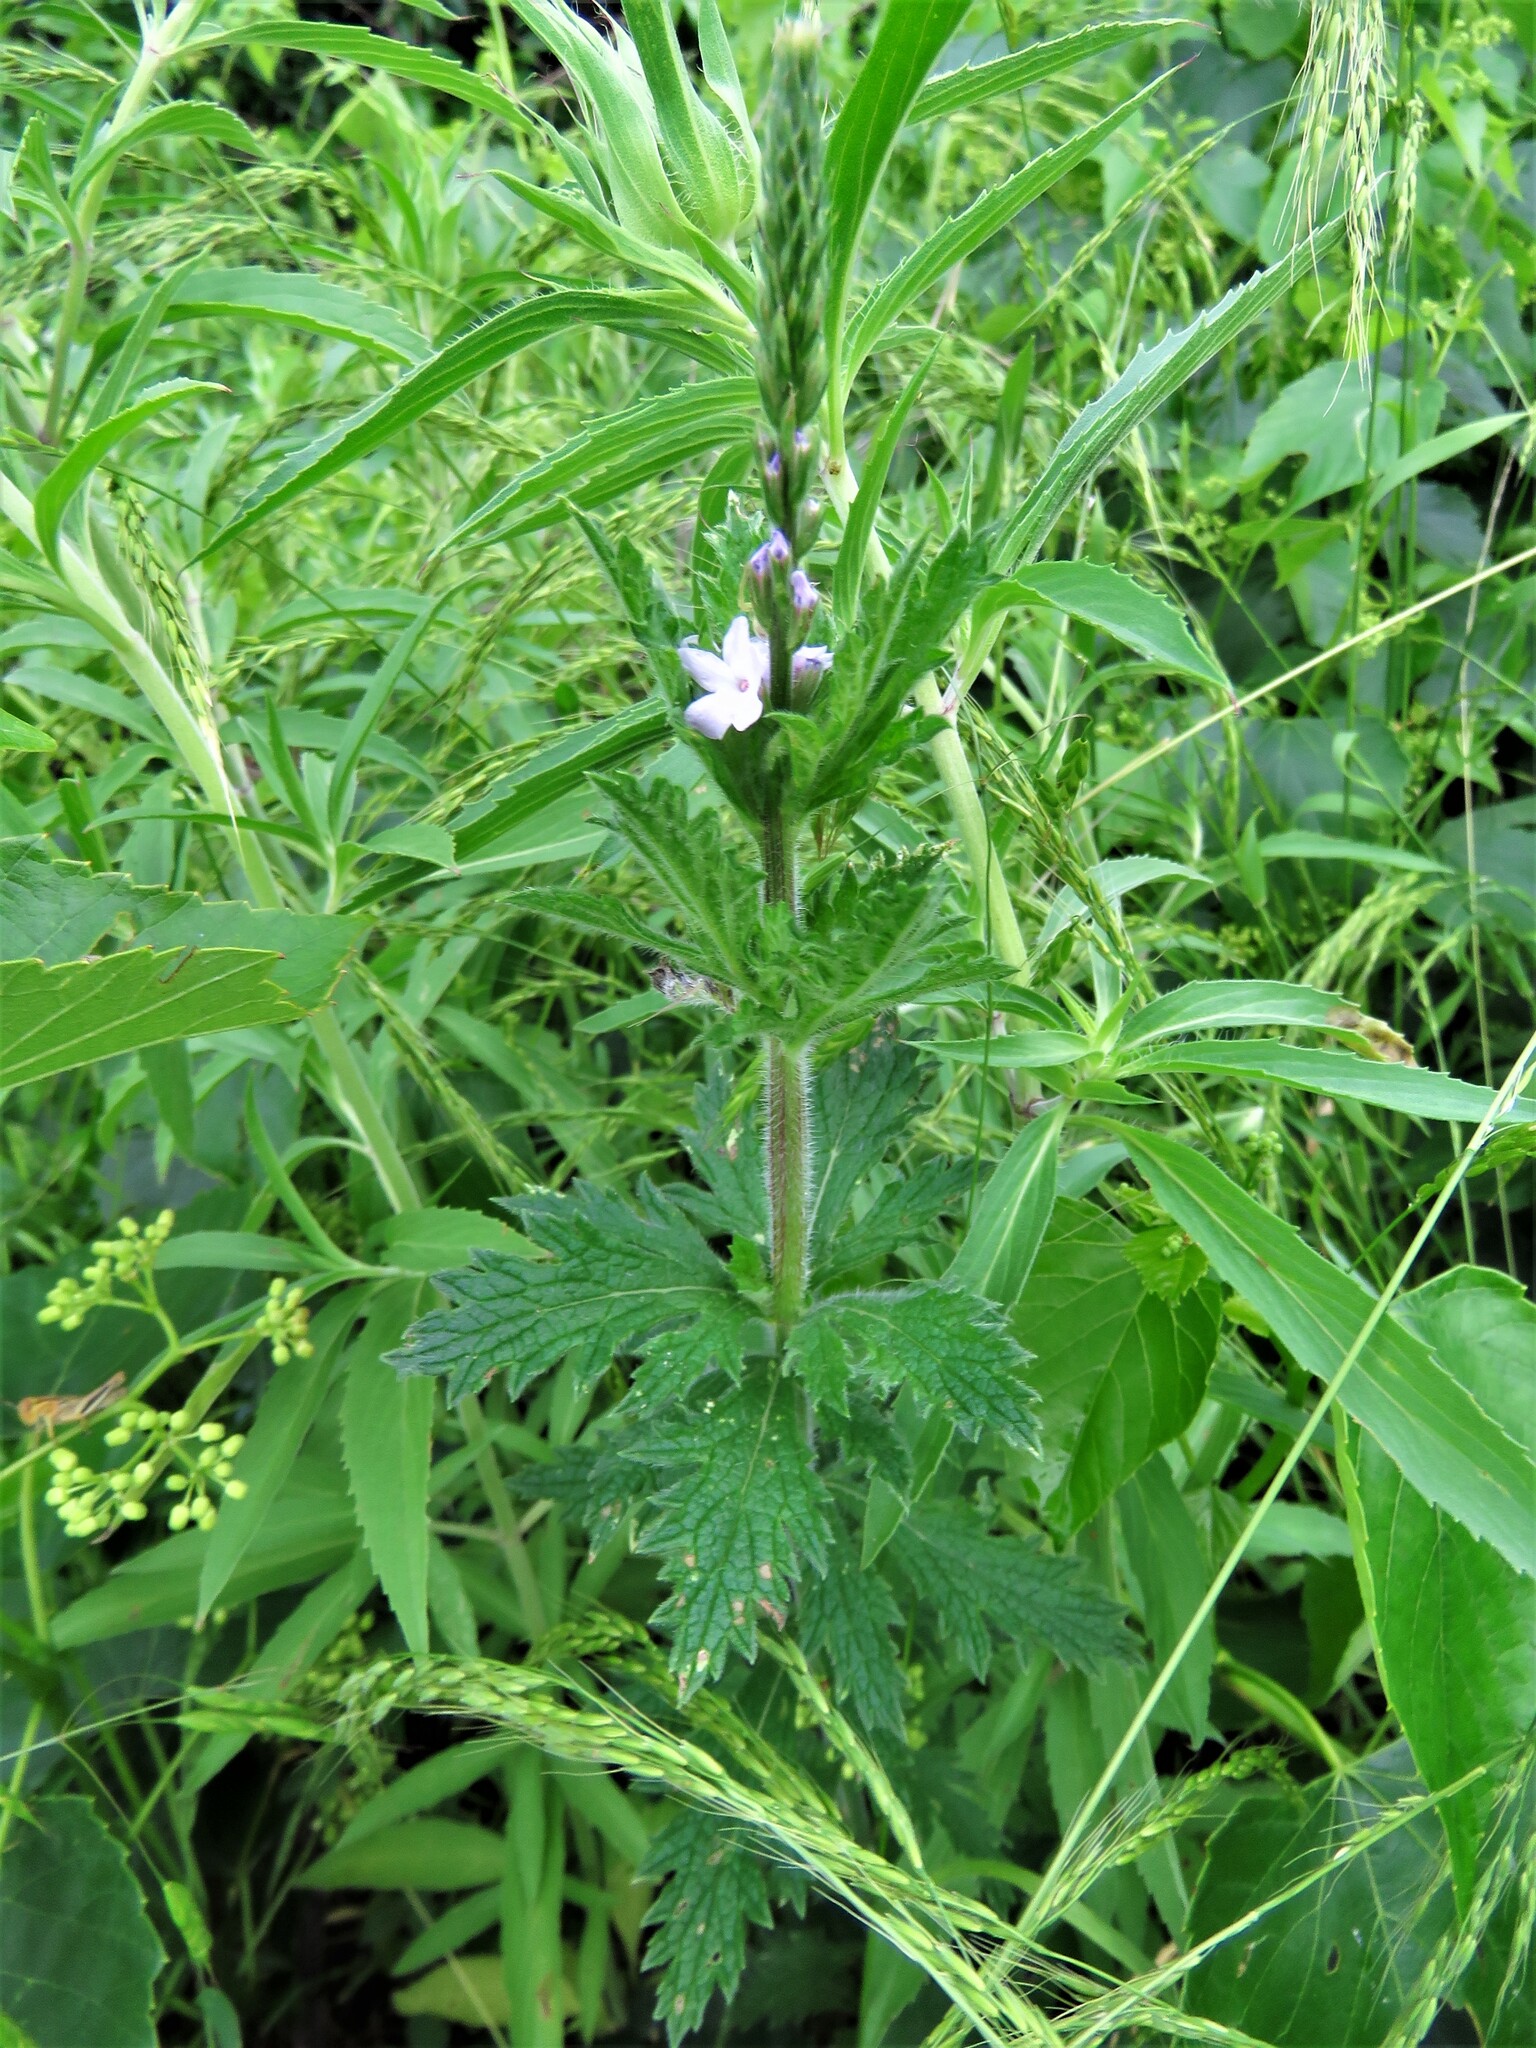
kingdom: Plantae
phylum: Tracheophyta
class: Magnoliopsida
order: Lamiales
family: Verbenaceae
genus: Verbena
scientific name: Verbena xutha
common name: Gulf vervain
